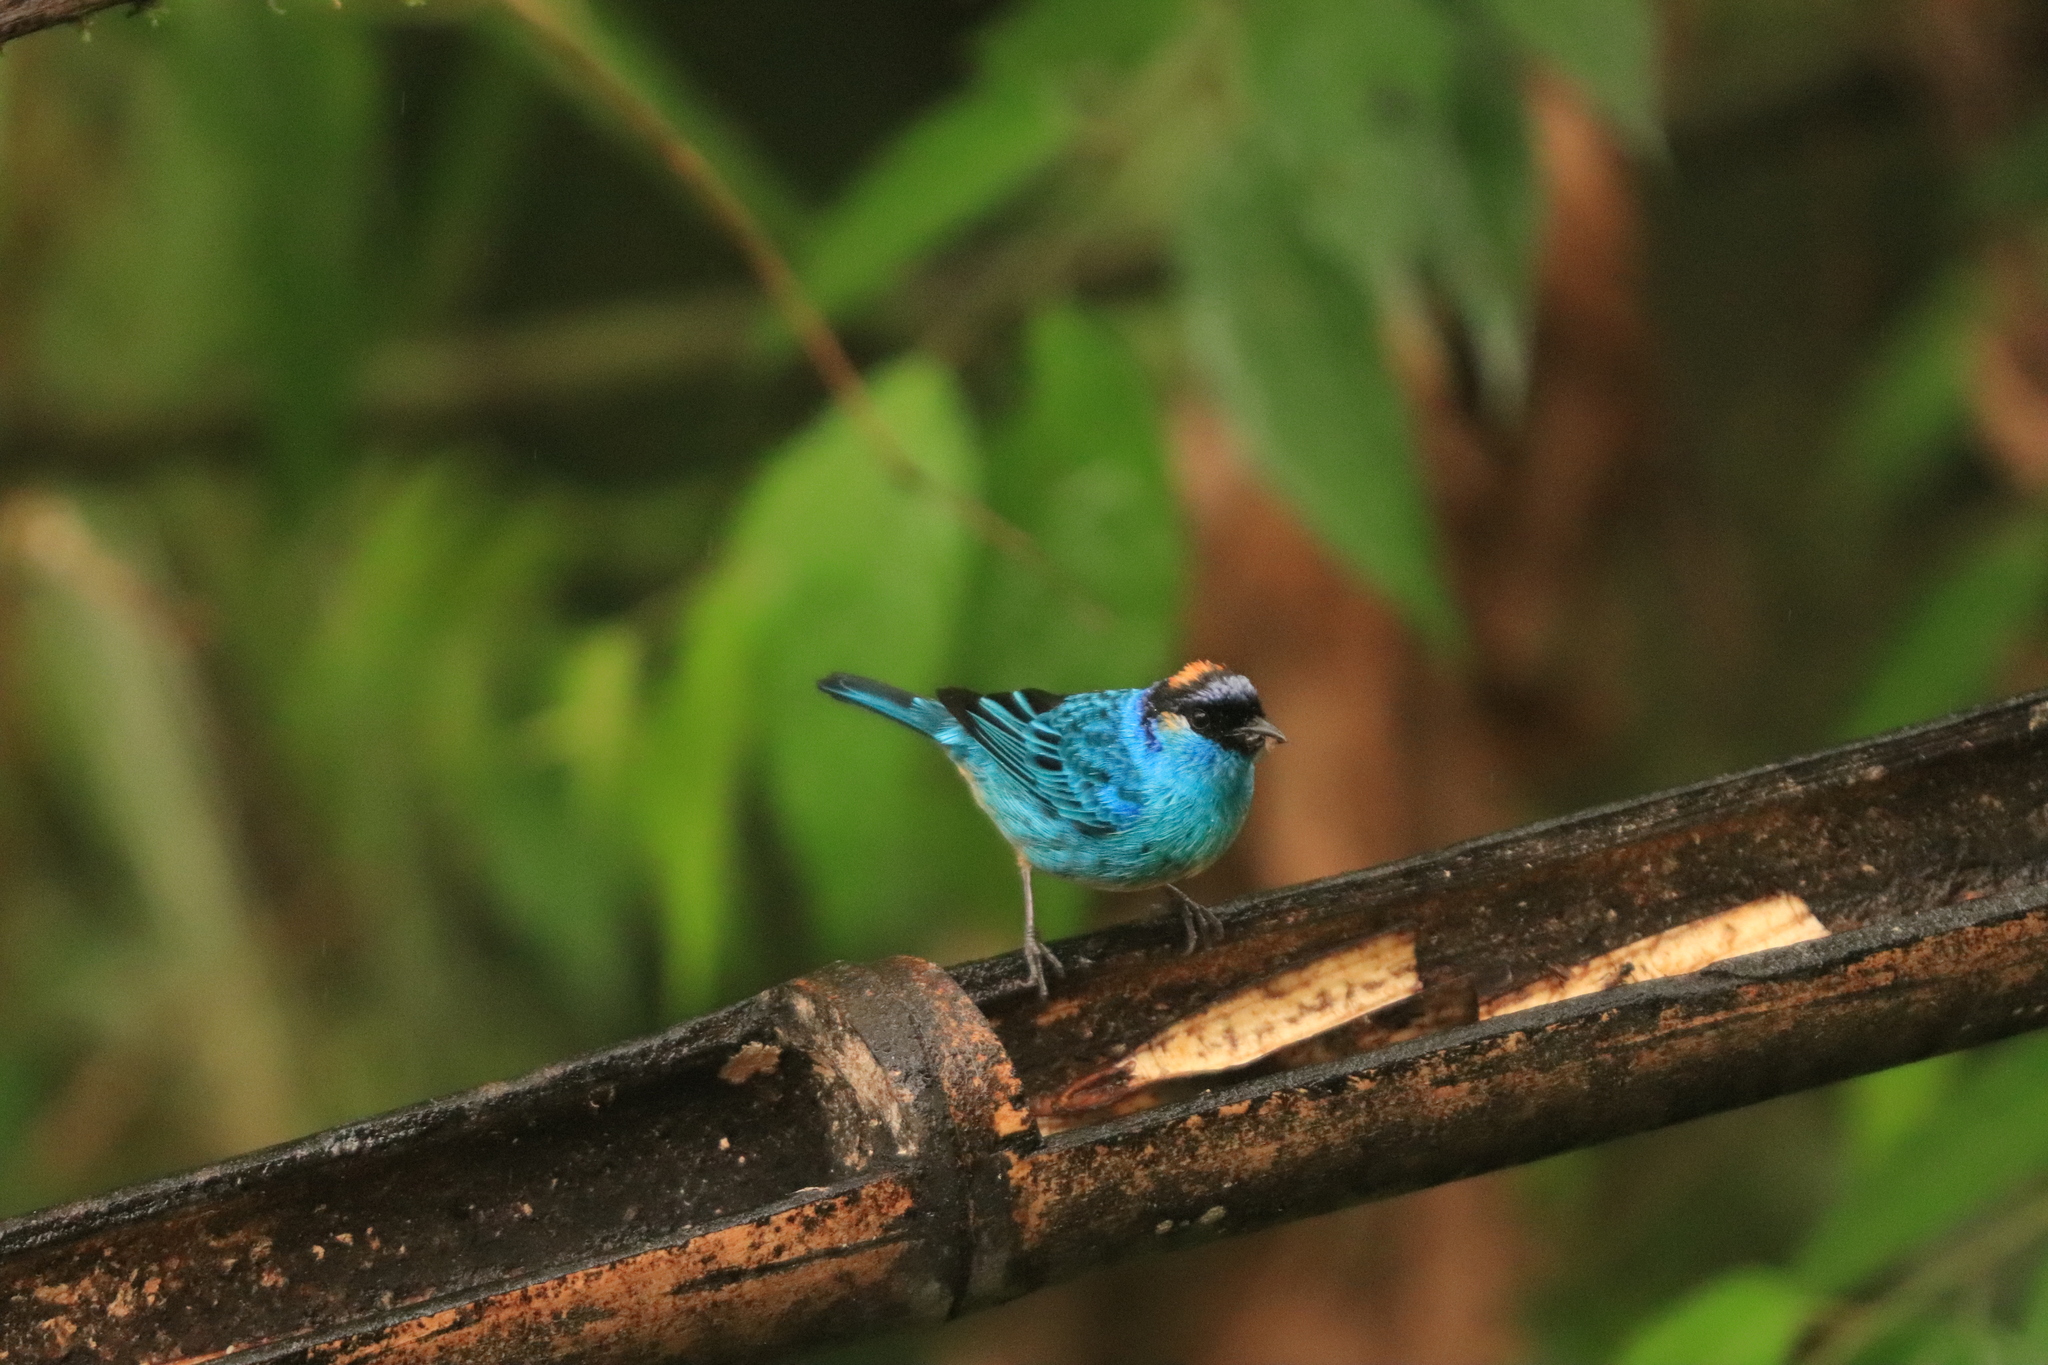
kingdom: Animalia
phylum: Chordata
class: Aves
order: Passeriformes
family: Thraupidae
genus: Chalcothraupis
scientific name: Chalcothraupis ruficervix
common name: Golden-naped tanager
